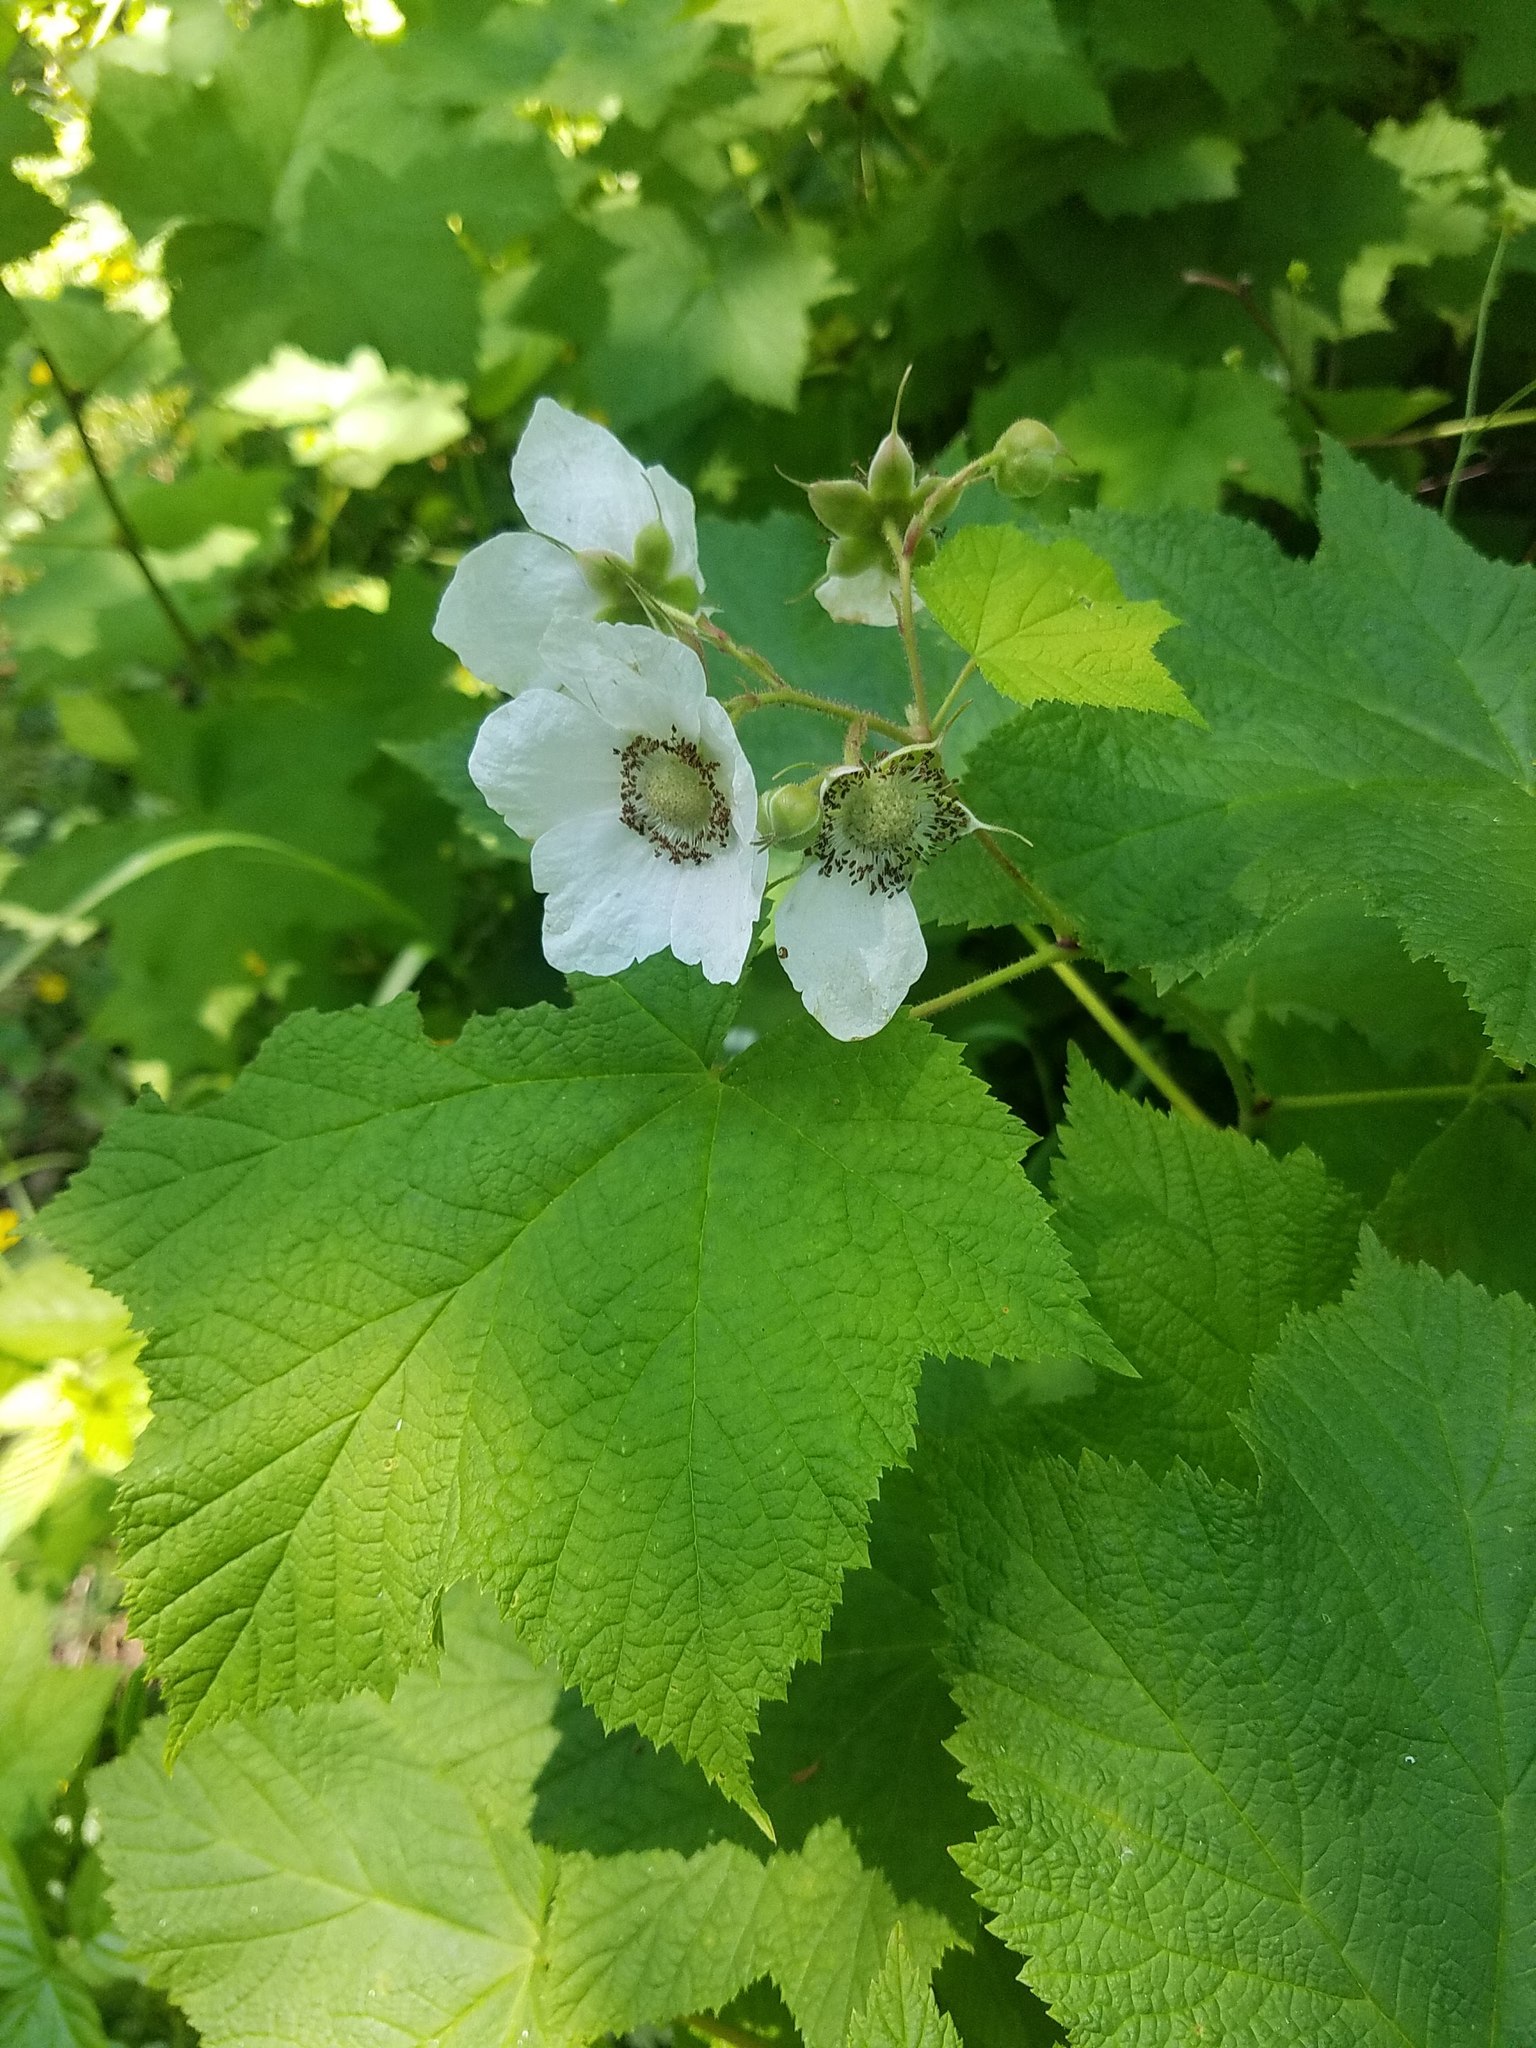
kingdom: Plantae
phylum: Tracheophyta
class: Magnoliopsida
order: Rosales
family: Rosaceae
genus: Rubus
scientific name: Rubus parviflorus
